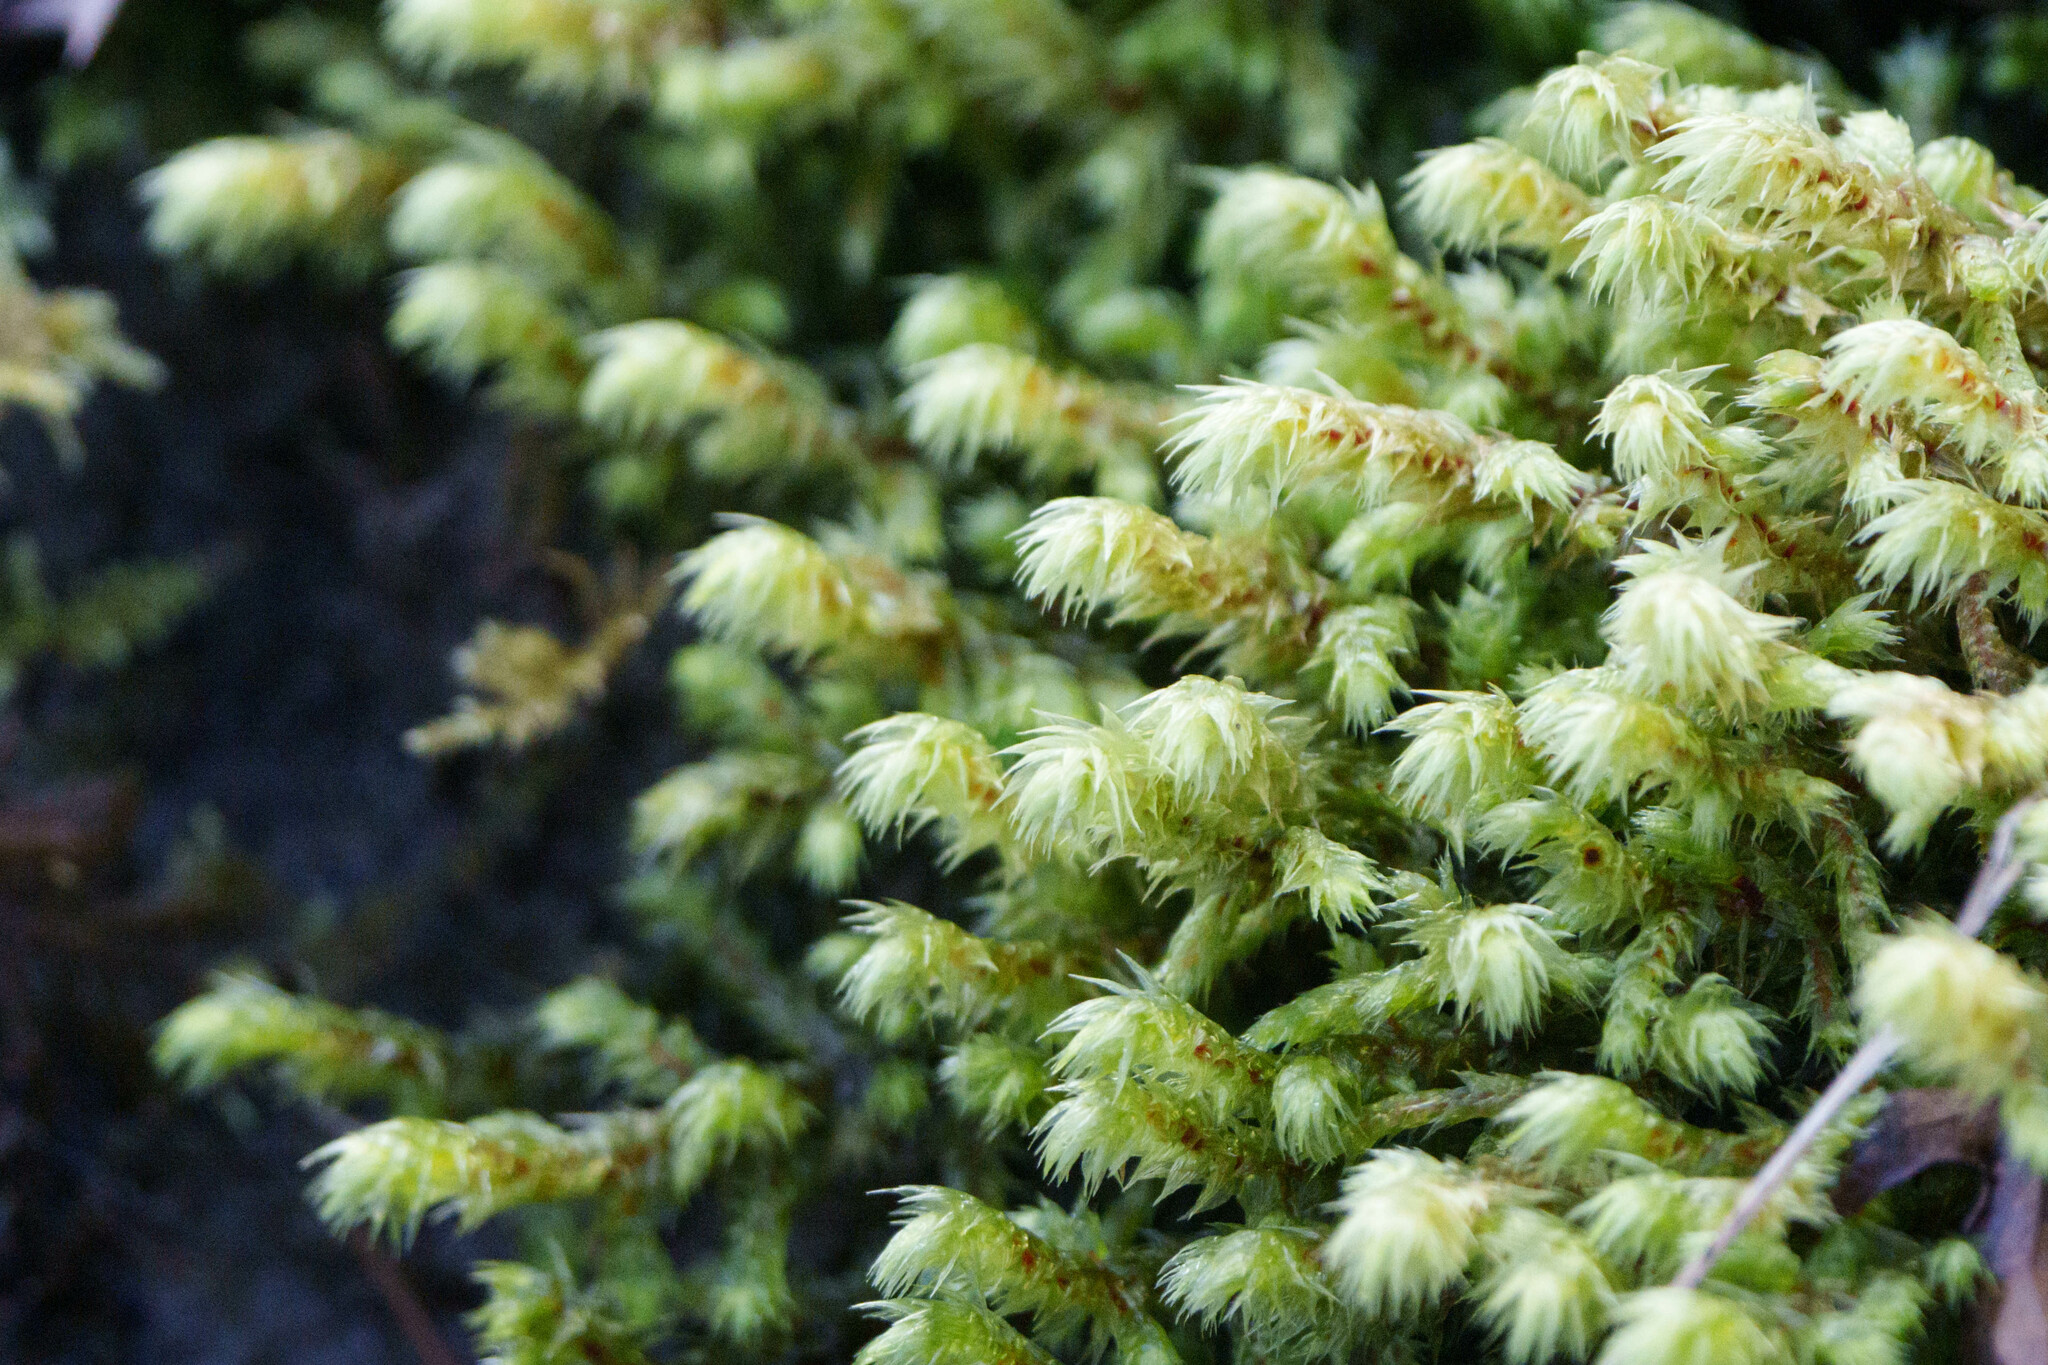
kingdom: Plantae
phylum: Bryophyta
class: Bryopsida
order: Hypnales
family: Hylocomiaceae
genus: Hylocomiadelphus
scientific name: Hylocomiadelphus triquetrus
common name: Rough goose neck moss
